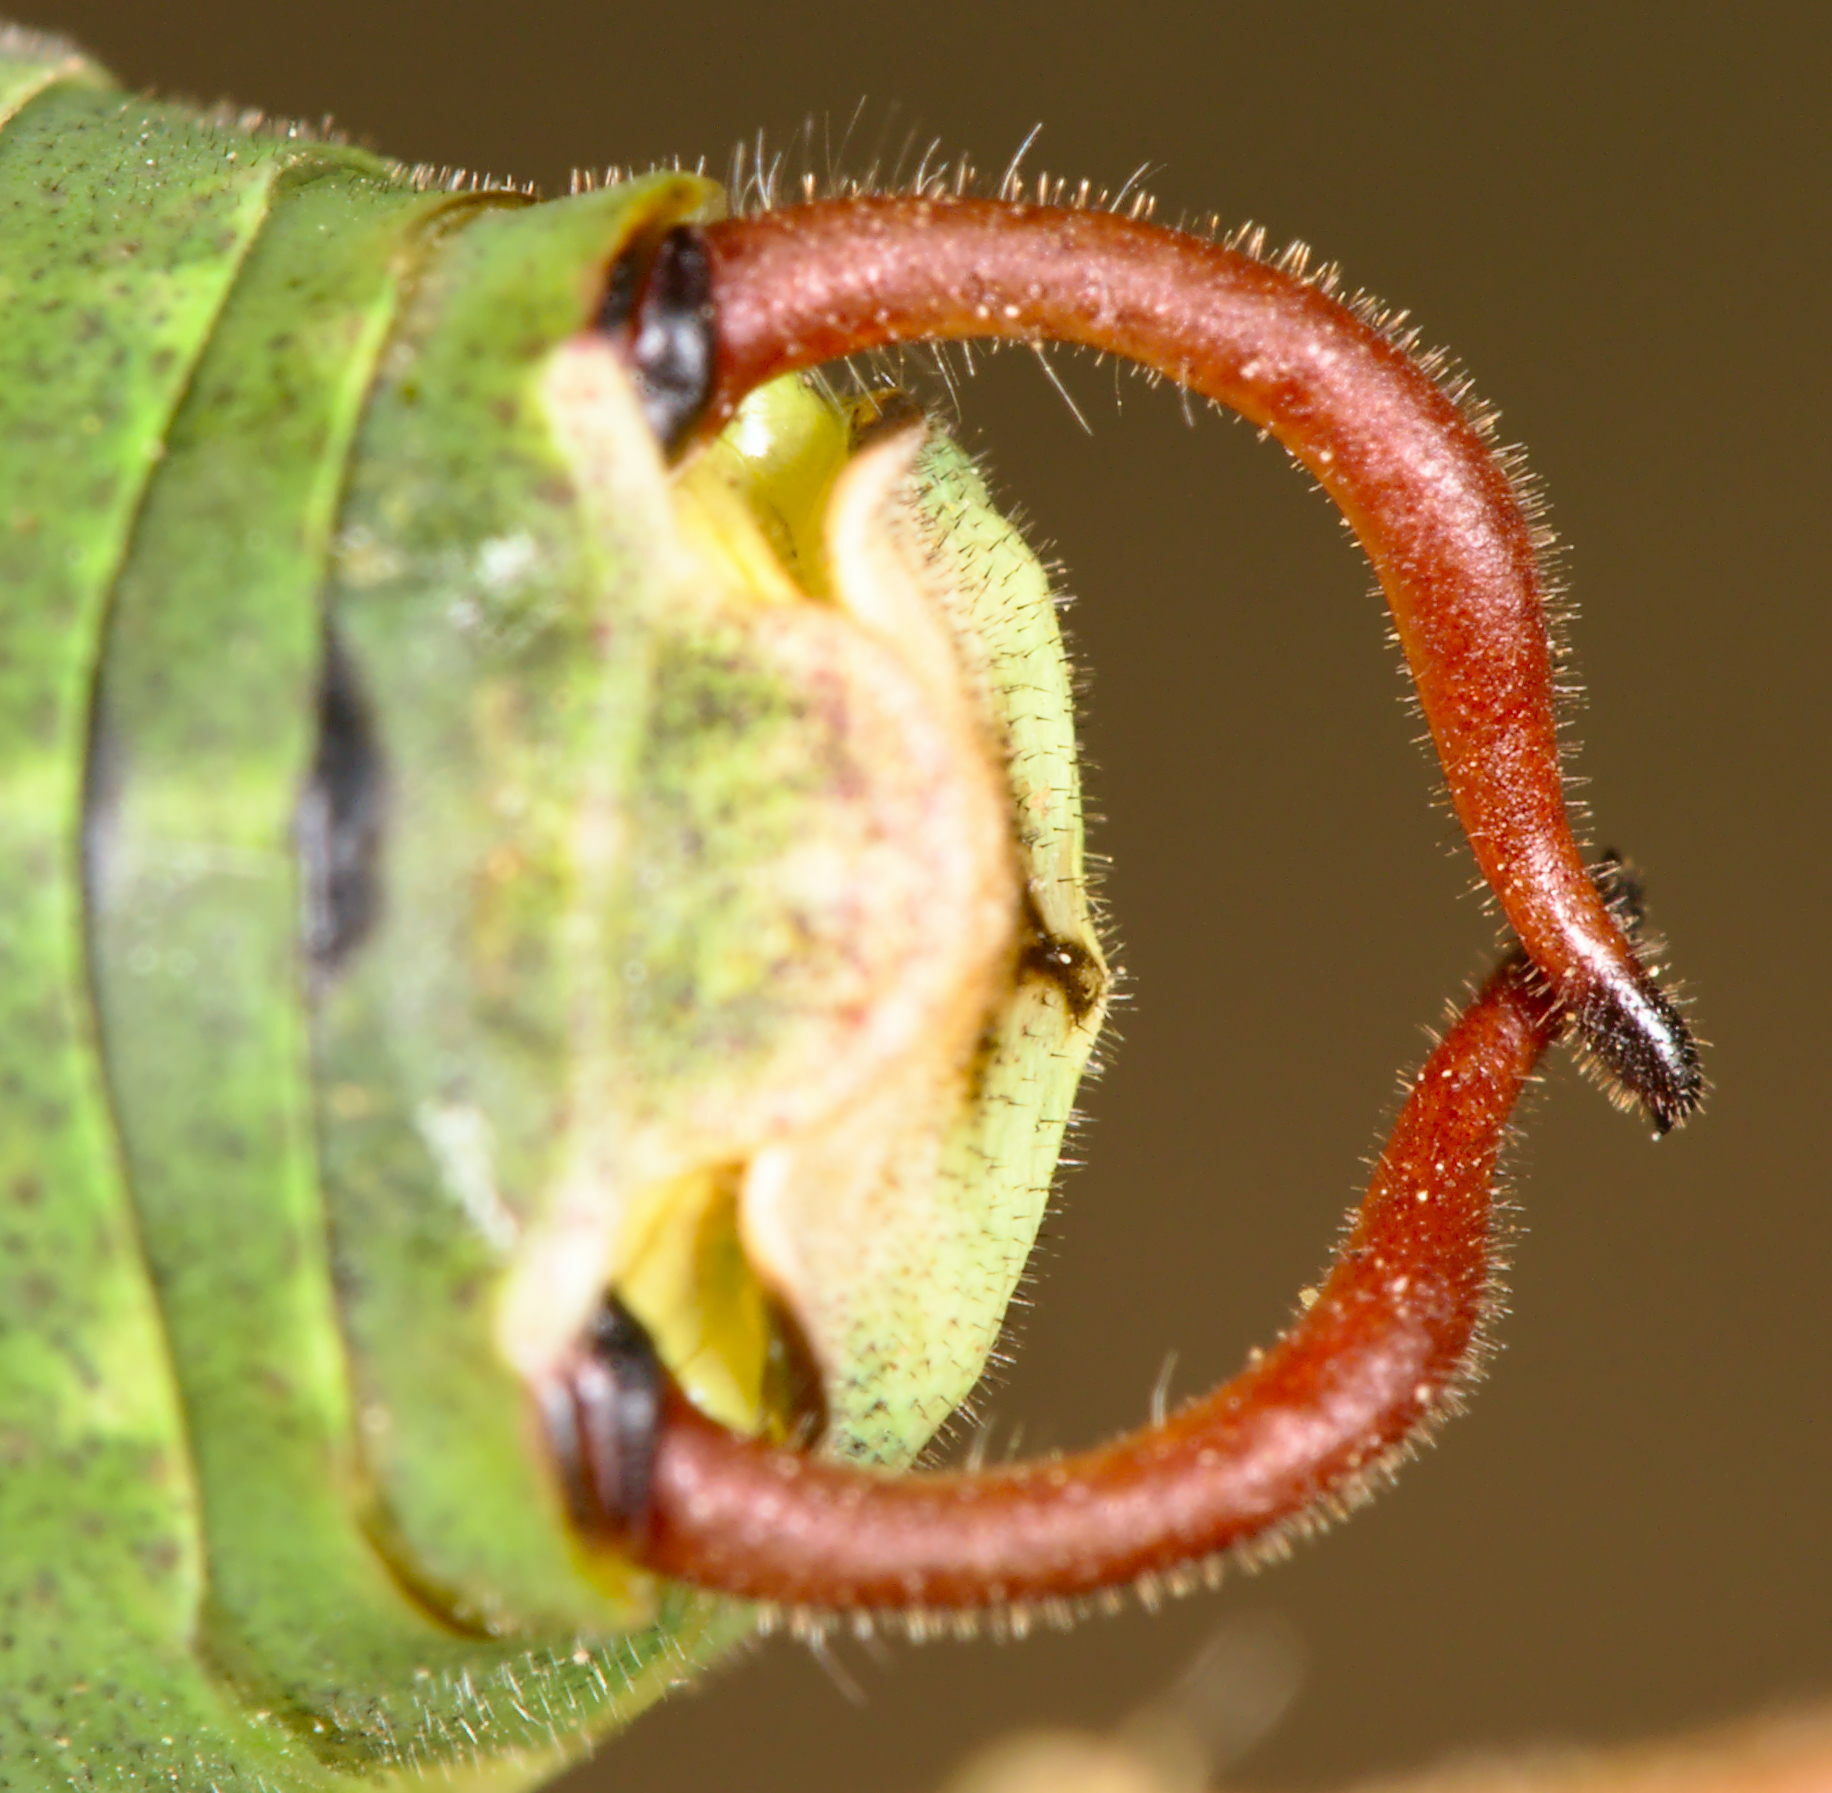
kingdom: Animalia
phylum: Arthropoda
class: Insecta
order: Orthoptera
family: Tettigoniidae
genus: Barbitistes
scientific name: Barbitistes obtusus
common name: Alpine saw bush-cricket
